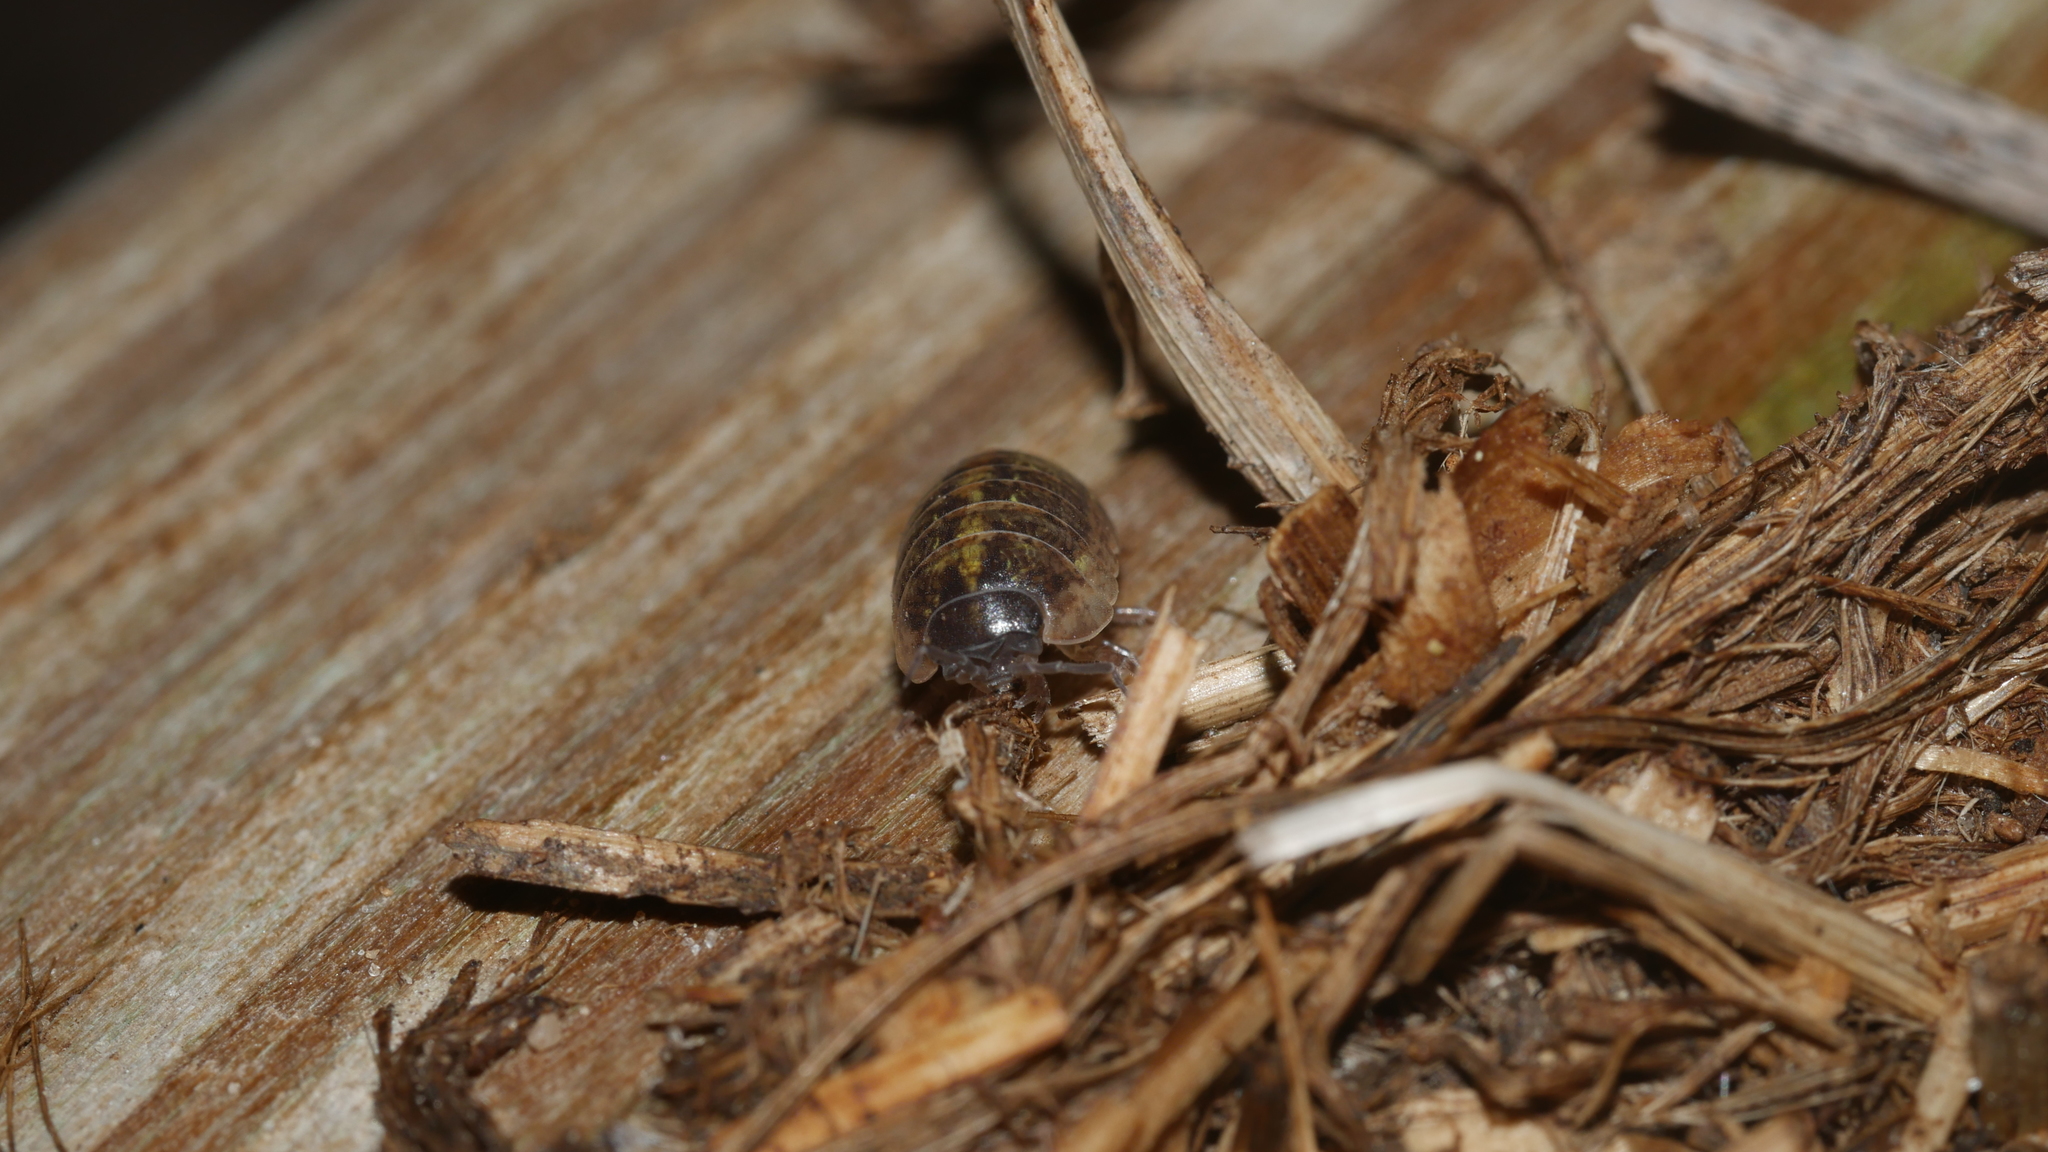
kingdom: Animalia
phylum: Arthropoda
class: Malacostraca
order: Isopoda
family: Armadillidiidae
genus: Armadillidium
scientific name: Armadillidium vulgare
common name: Common pill woodlouse
